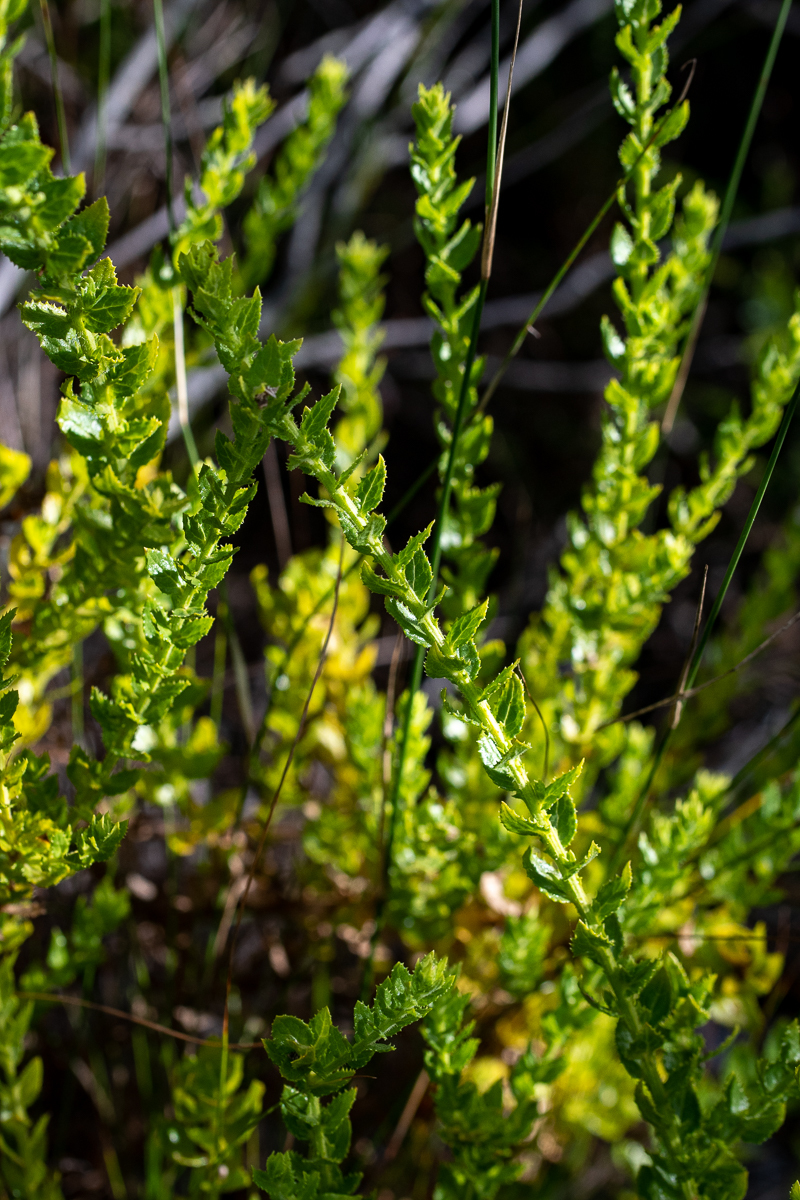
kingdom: Plantae
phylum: Tracheophyta
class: Magnoliopsida
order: Lamiales
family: Scrophulariaceae
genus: Oftia
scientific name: Oftia africana
